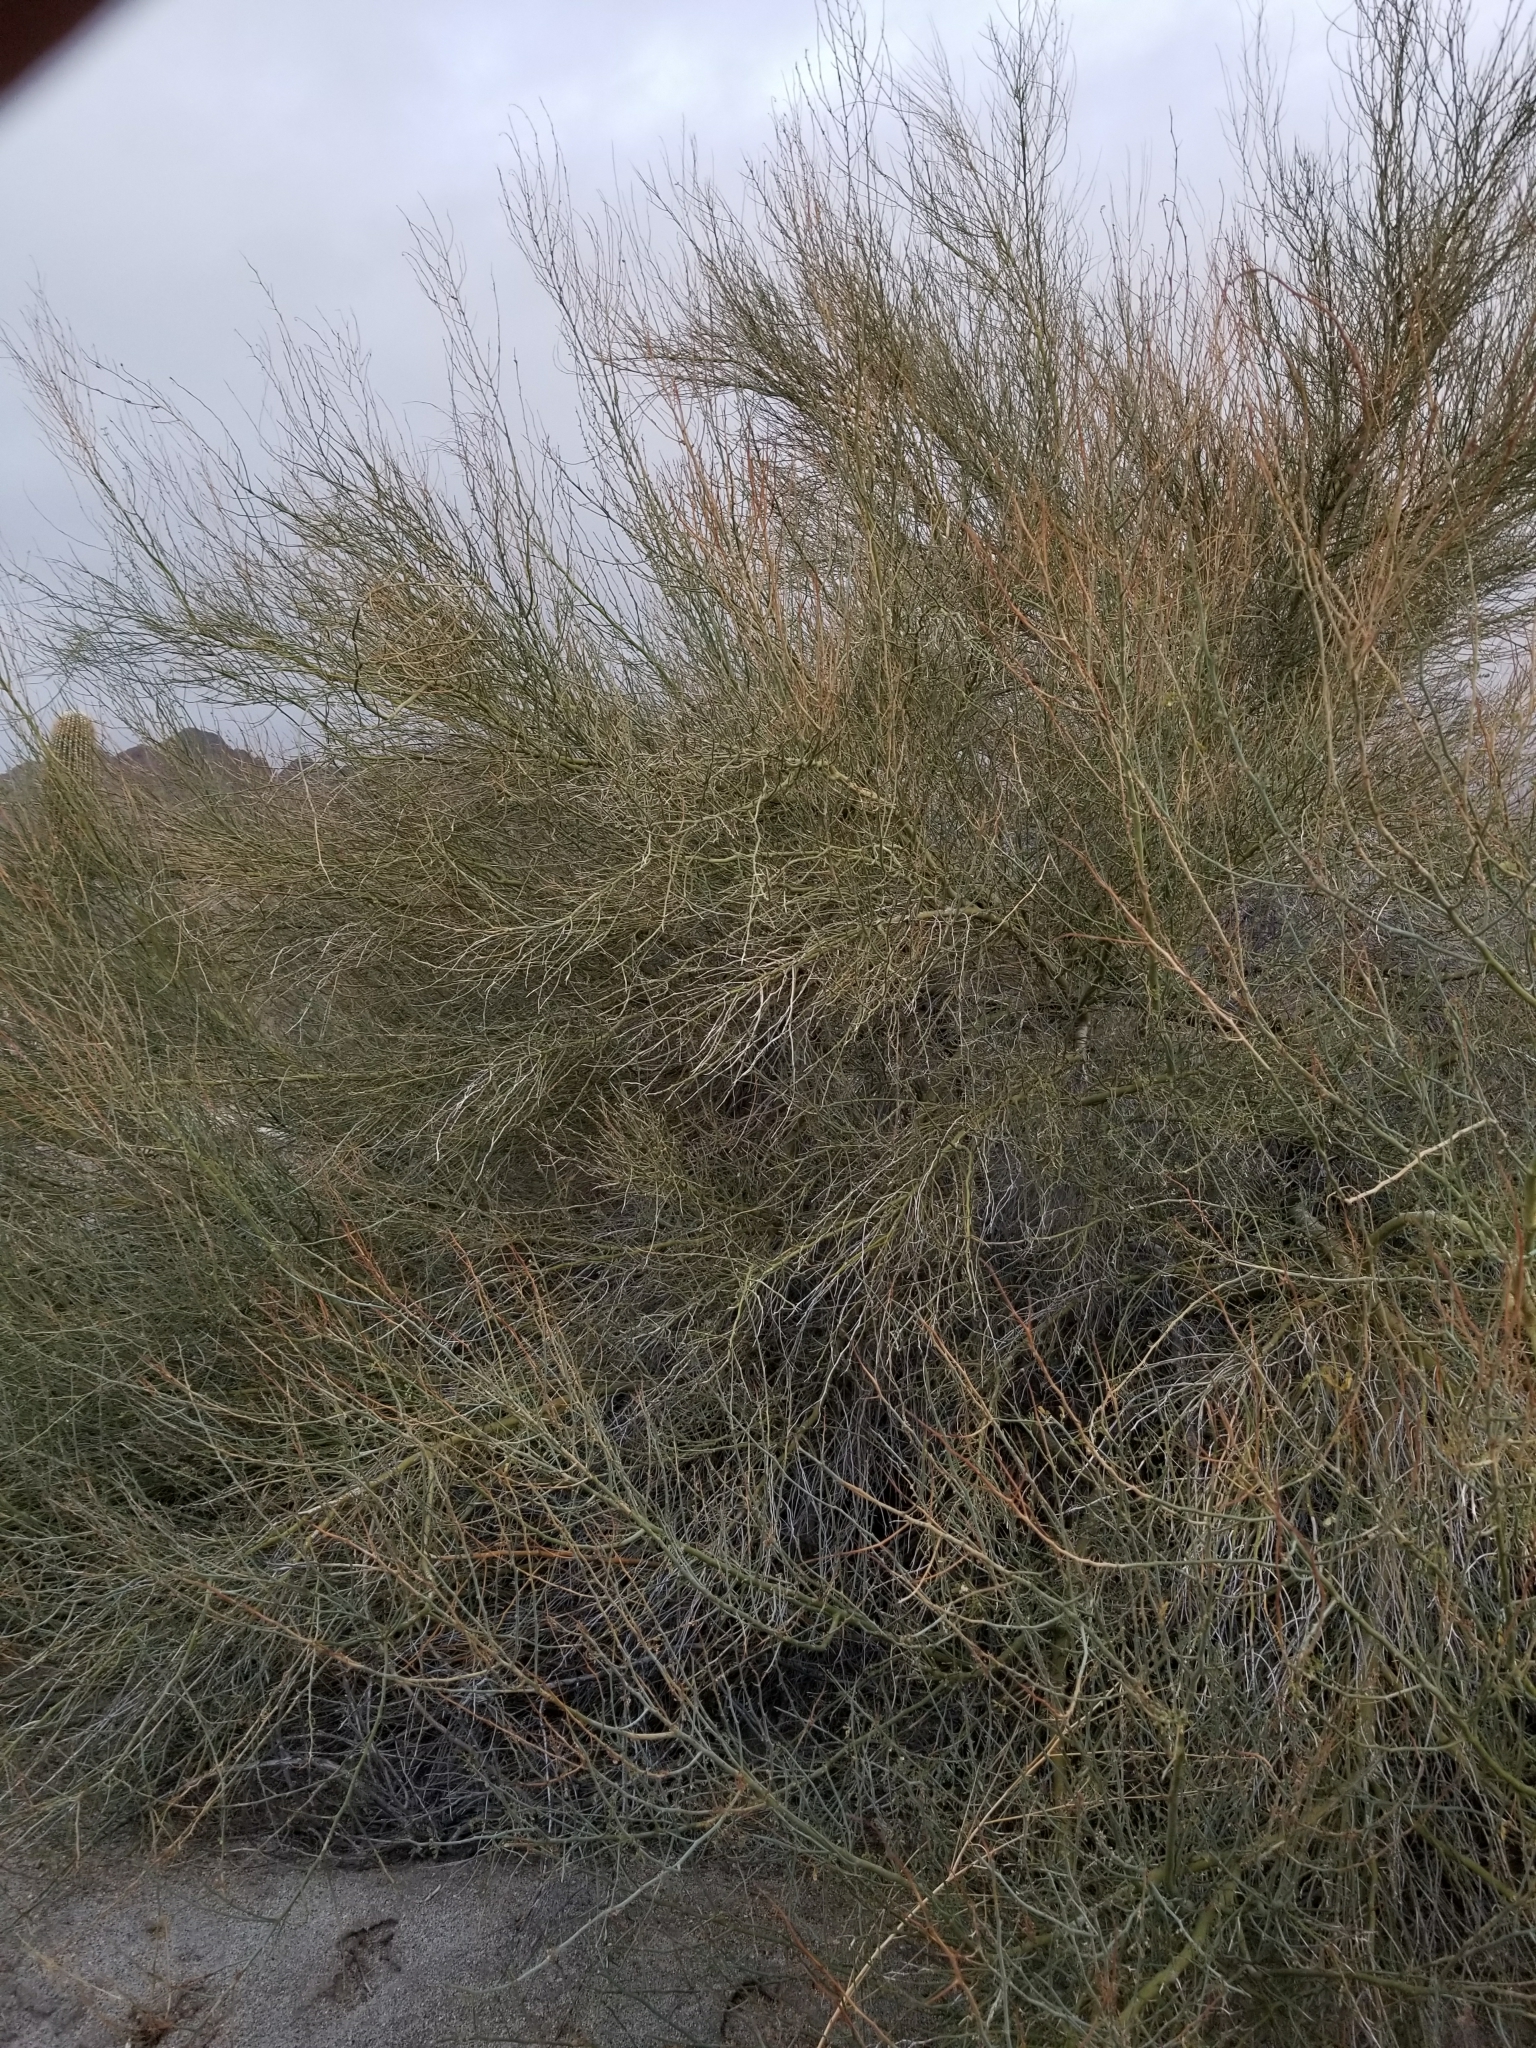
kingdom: Plantae
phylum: Tracheophyta
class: Magnoliopsida
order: Fabales
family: Fabaceae
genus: Parkinsonia
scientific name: Parkinsonia florida
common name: Blue paloverde
